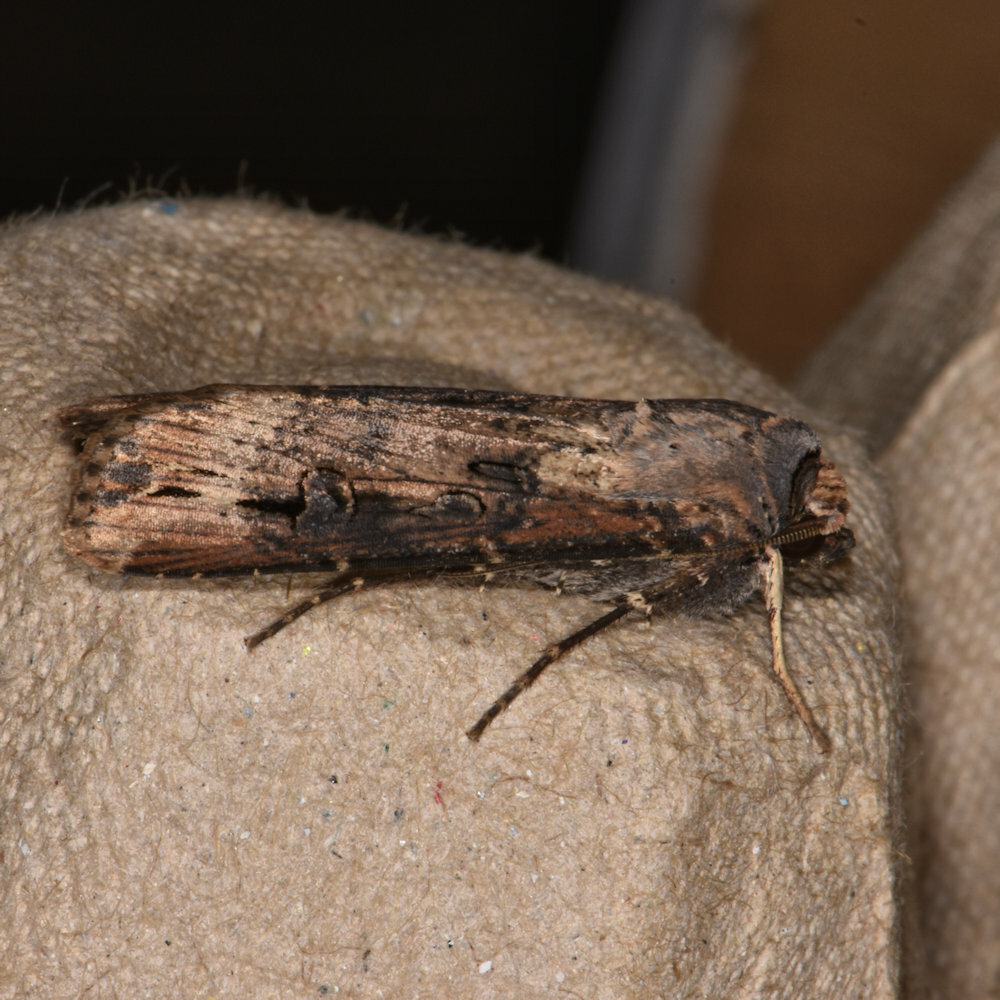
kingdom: Animalia
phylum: Arthropoda
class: Insecta
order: Lepidoptera
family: Noctuidae
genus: Agrotis
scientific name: Agrotis ipsilon
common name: Dark sword-grass
